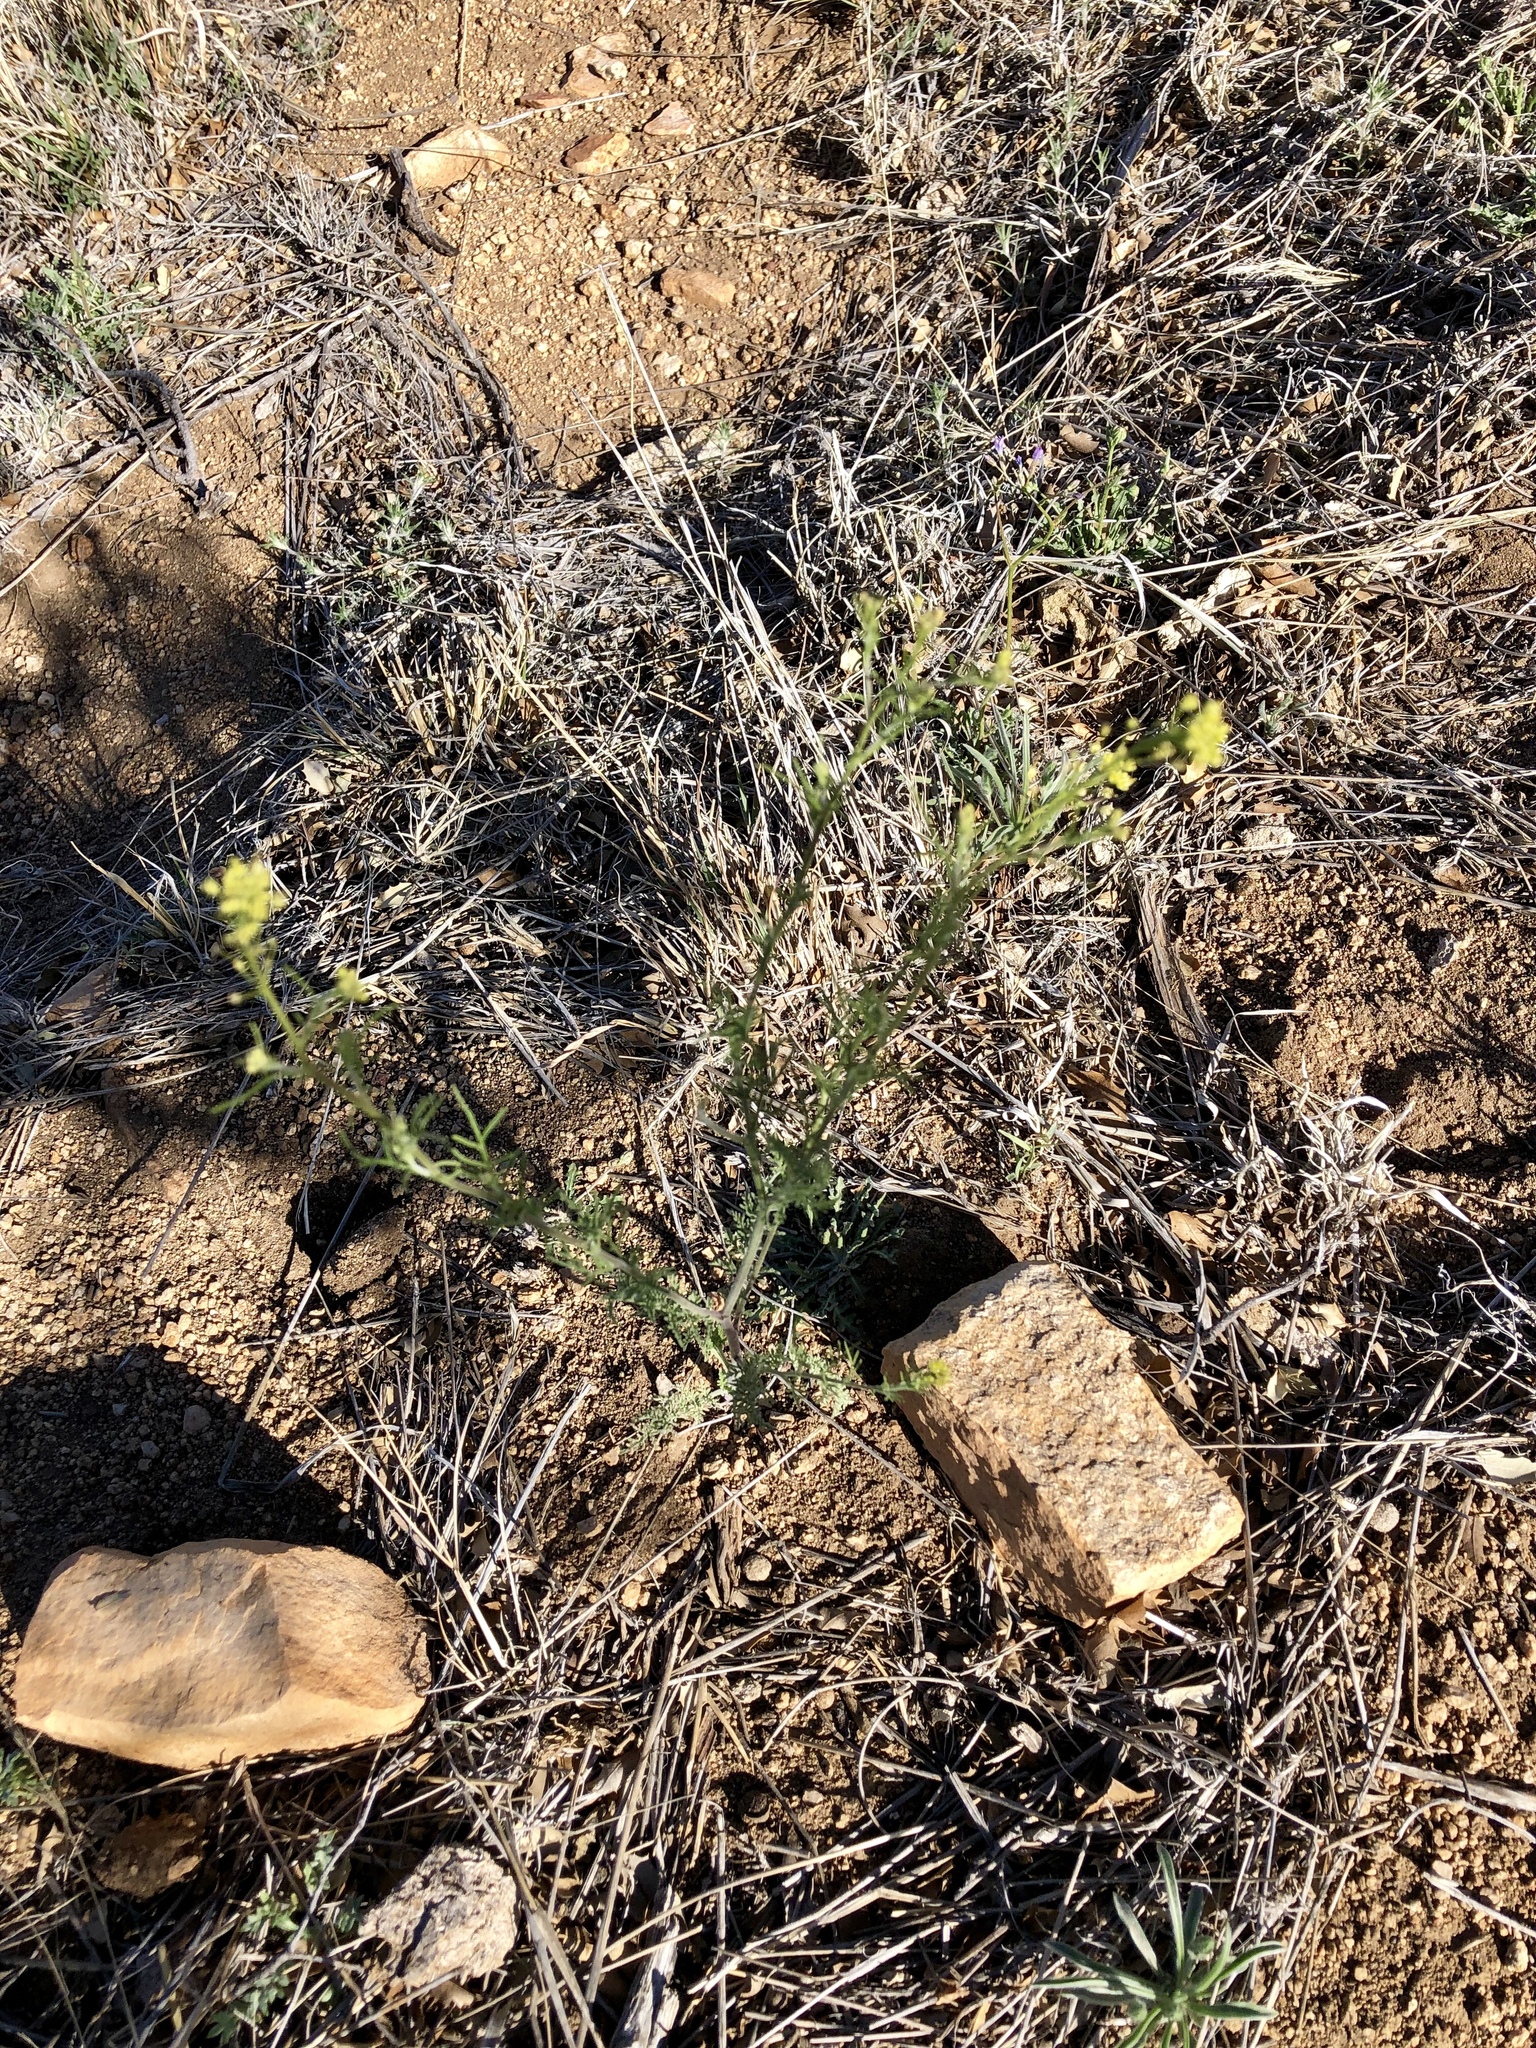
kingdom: Plantae
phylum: Tracheophyta
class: Magnoliopsida
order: Brassicales
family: Brassicaceae
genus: Descurainia
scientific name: Descurainia pinnata
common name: Western tansy mustard
